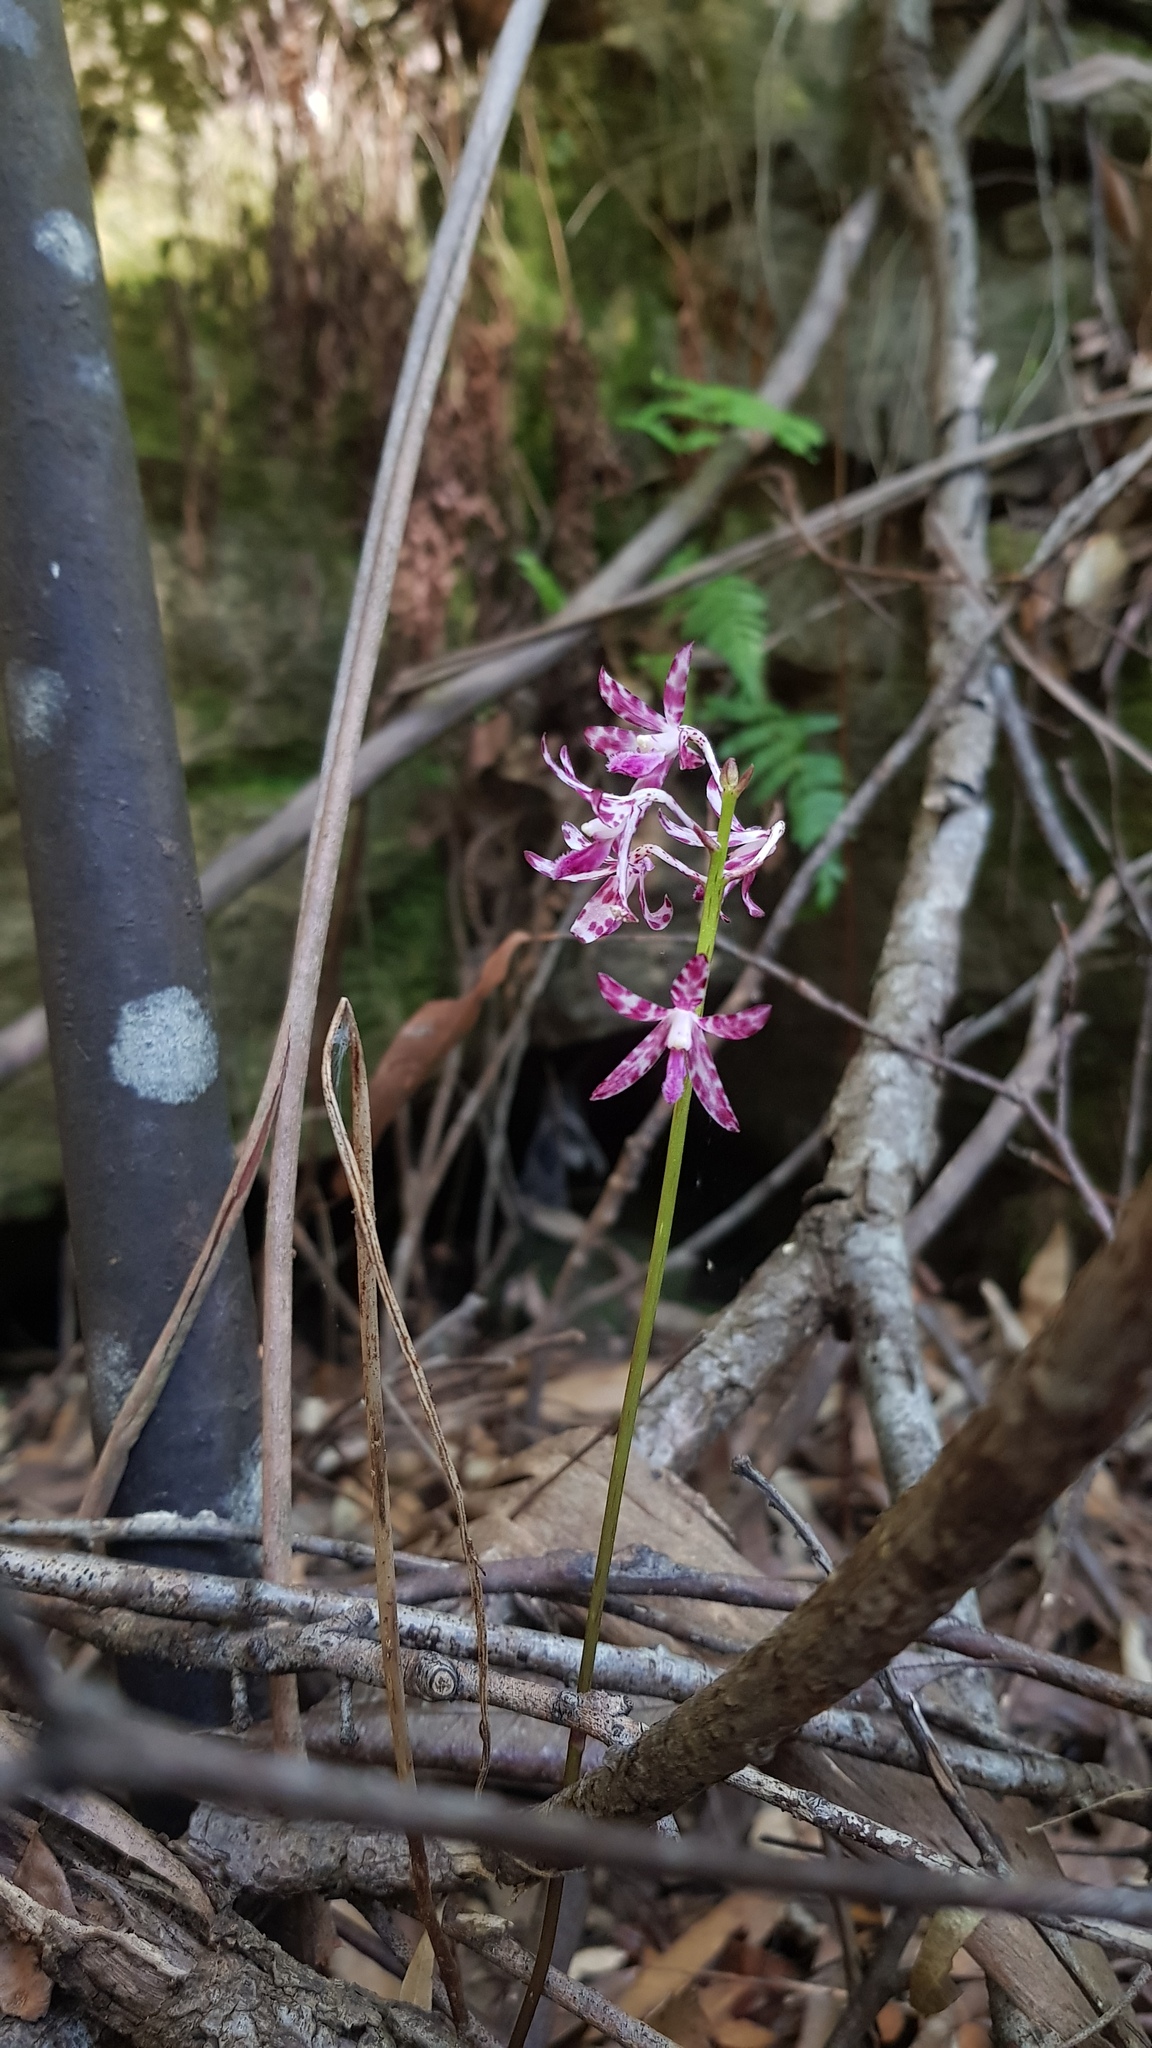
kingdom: Plantae
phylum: Tracheophyta
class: Liliopsida
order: Asparagales
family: Orchidaceae
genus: Dipodium
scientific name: Dipodium variegatum
